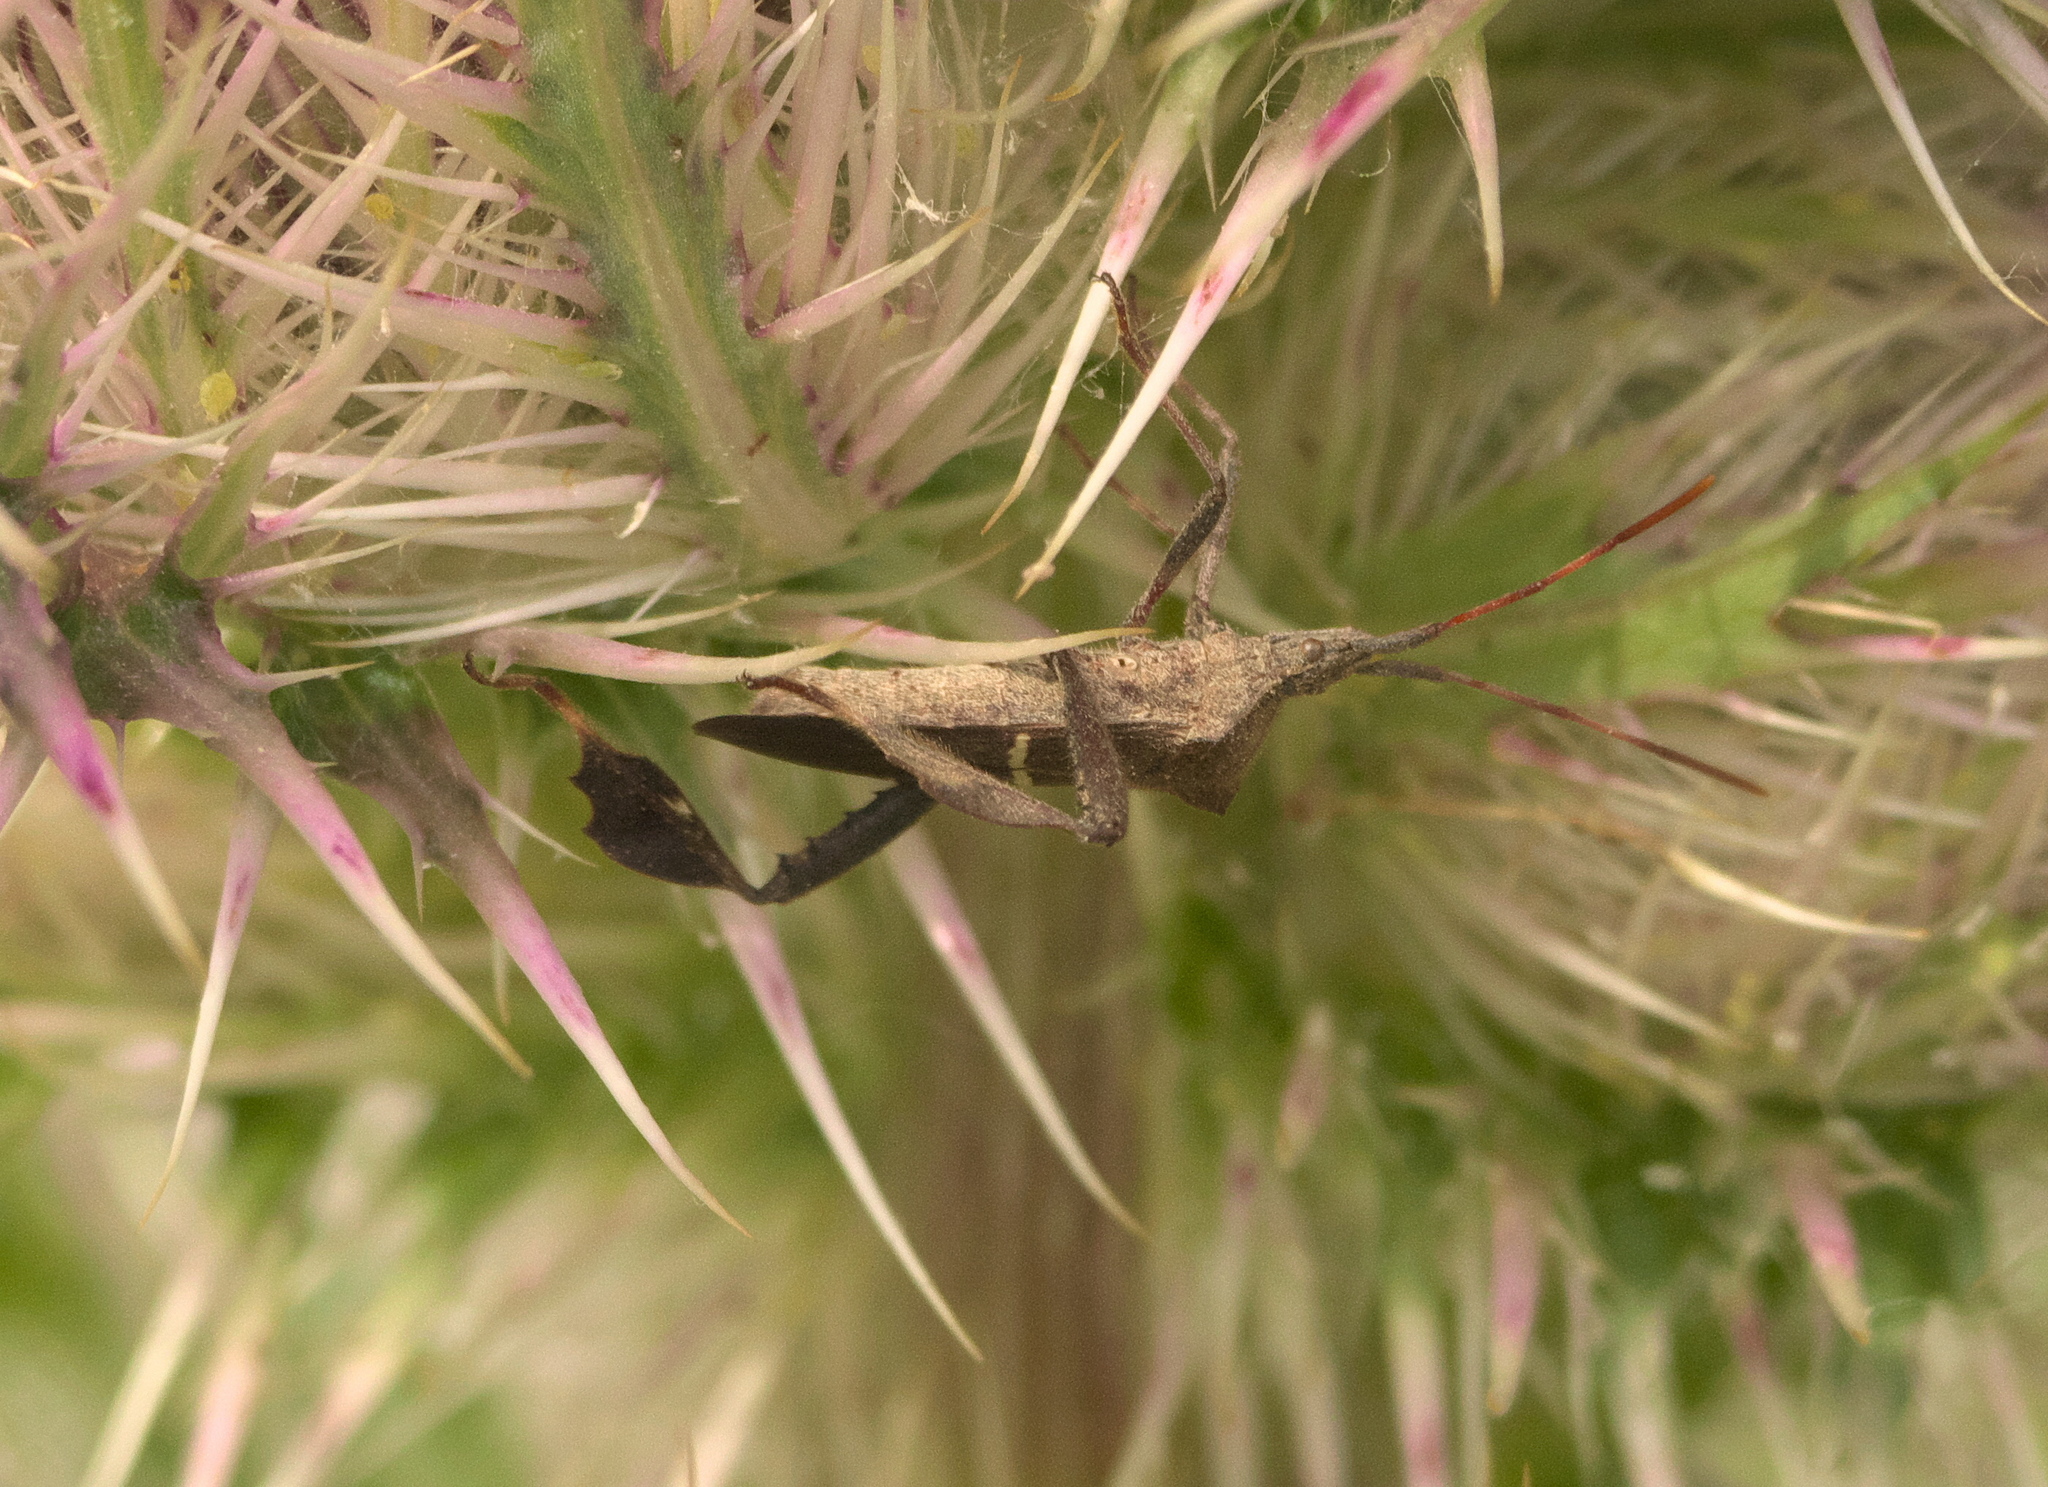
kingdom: Animalia
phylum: Arthropoda
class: Insecta
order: Hemiptera
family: Coreidae
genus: Leptoglossus
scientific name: Leptoglossus phyllopus
